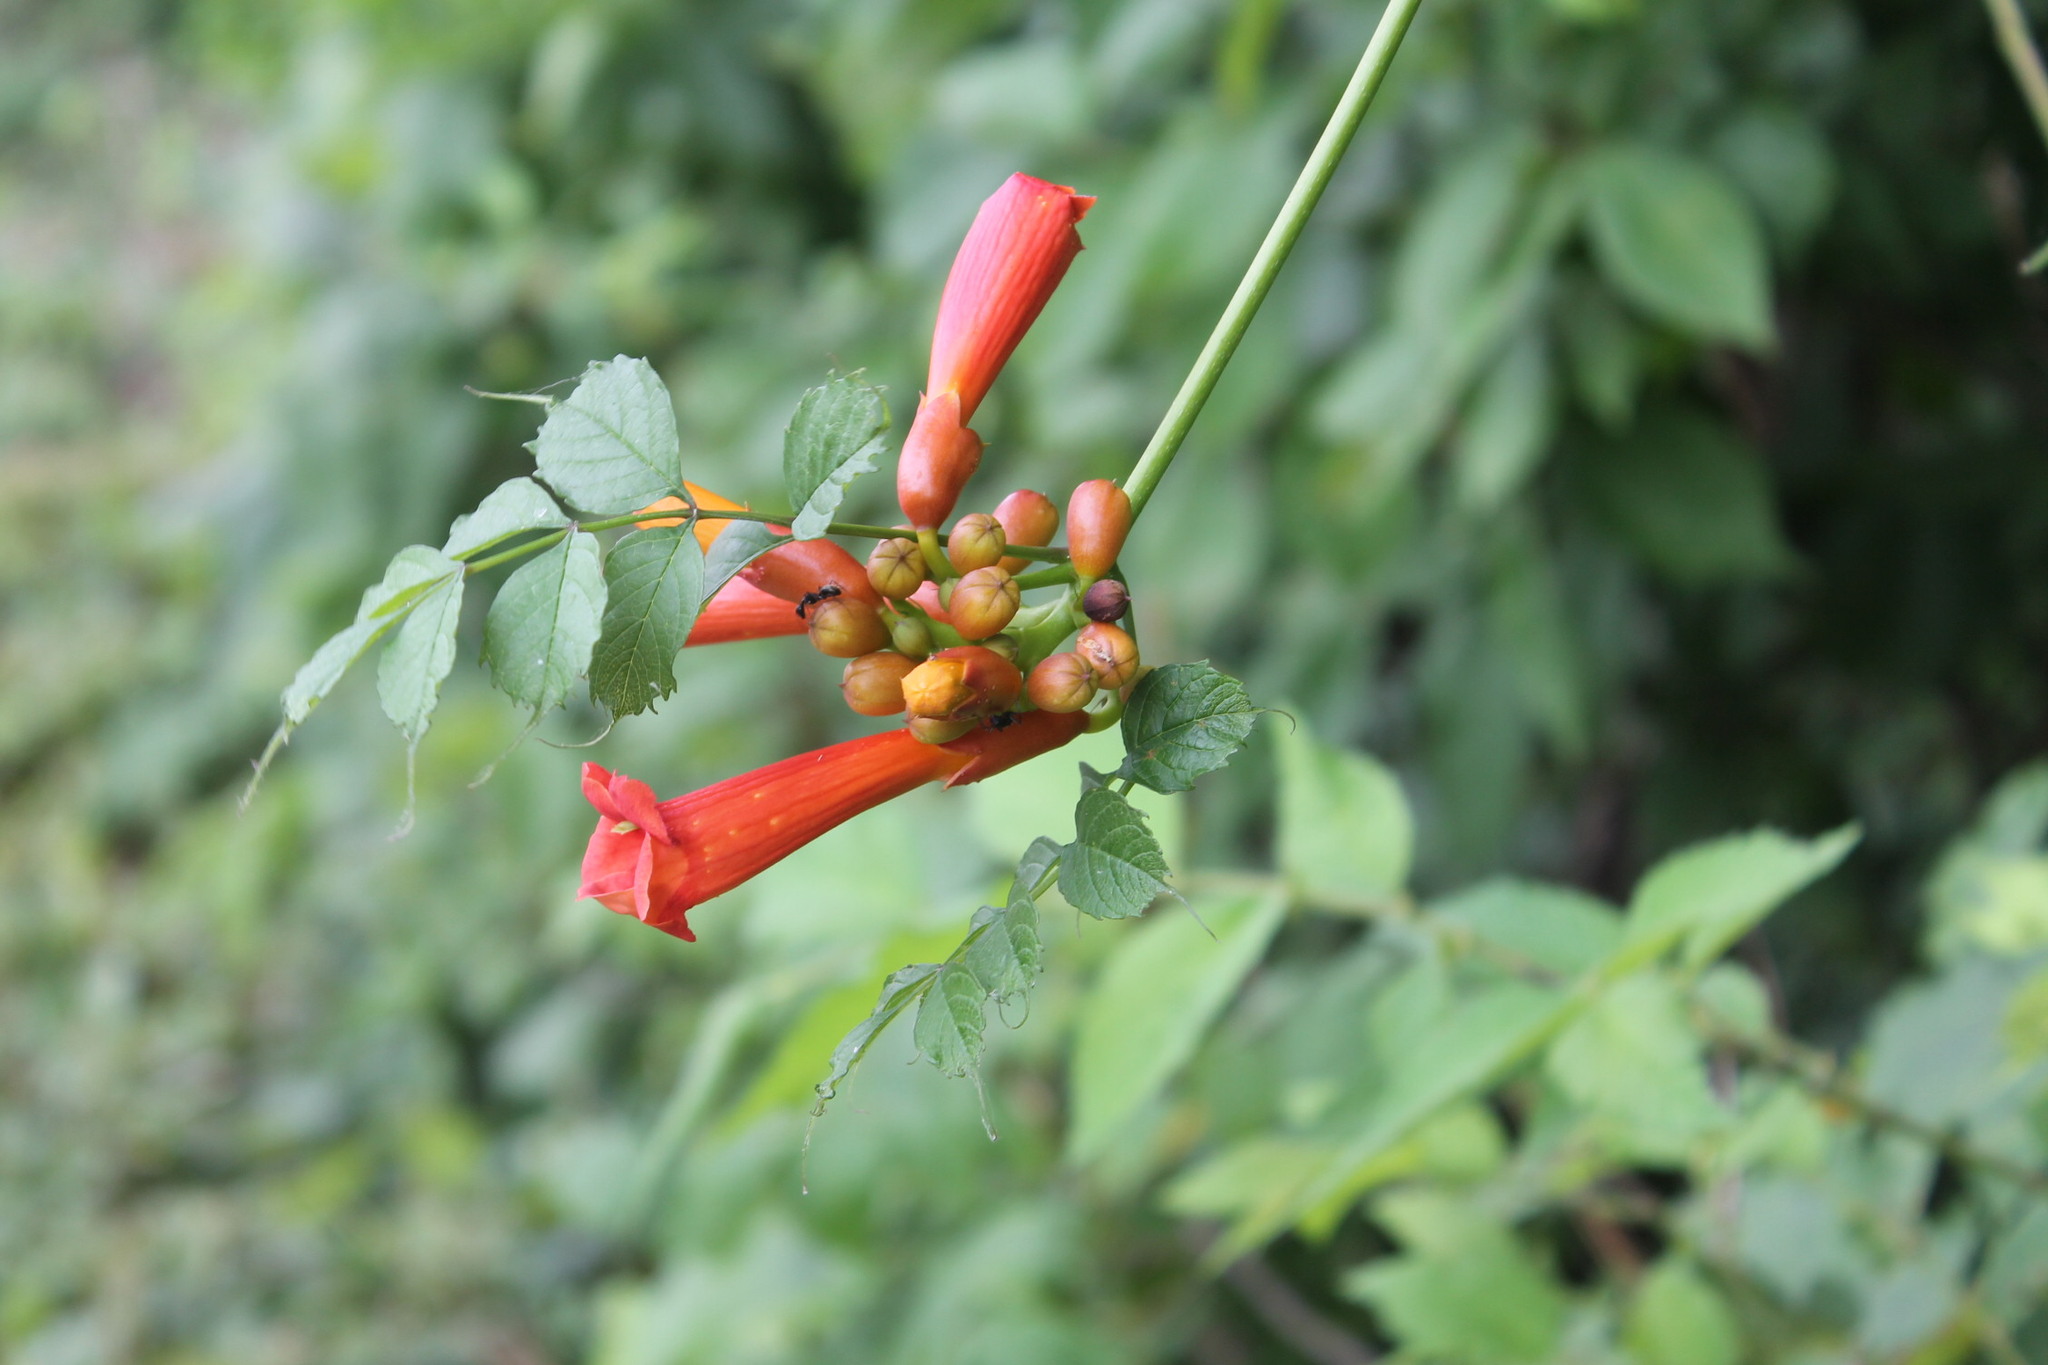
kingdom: Plantae
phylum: Tracheophyta
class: Magnoliopsida
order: Lamiales
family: Bignoniaceae
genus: Campsis
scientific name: Campsis radicans
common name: Trumpet-creeper
